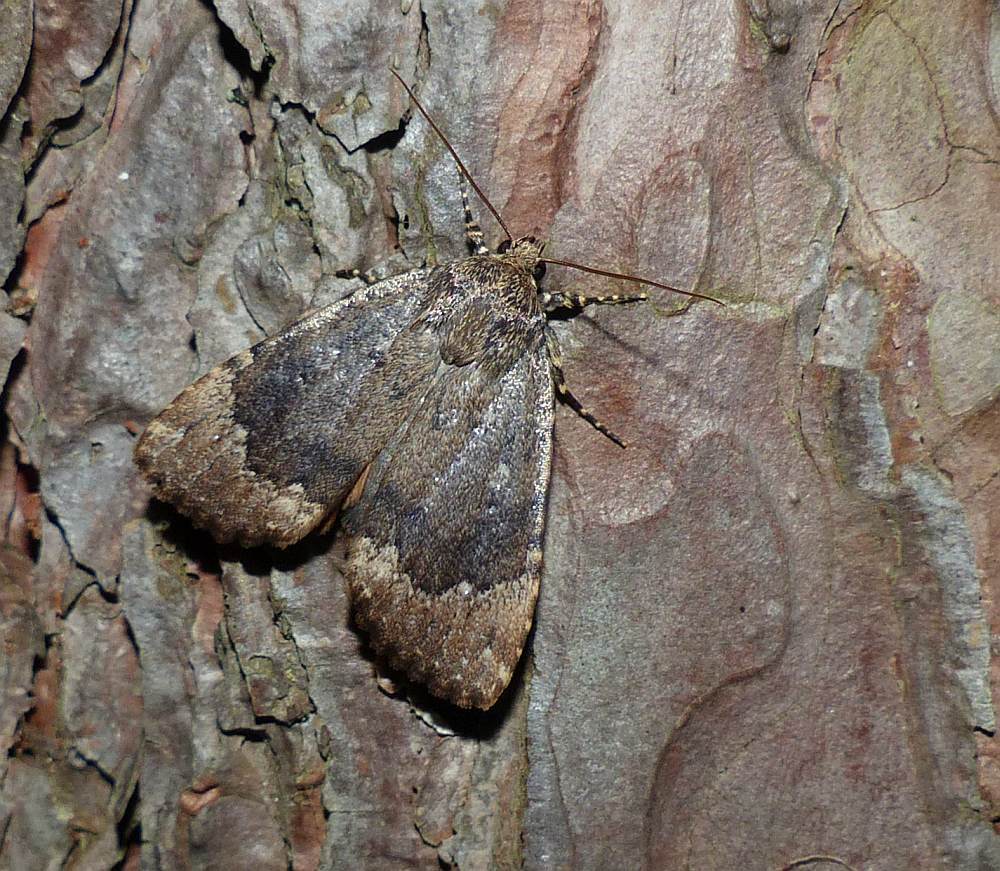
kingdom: Animalia
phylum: Arthropoda
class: Insecta
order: Lepidoptera
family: Noctuidae
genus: Amphipyra
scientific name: Amphipyra pyramidoides
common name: American copper underwing
